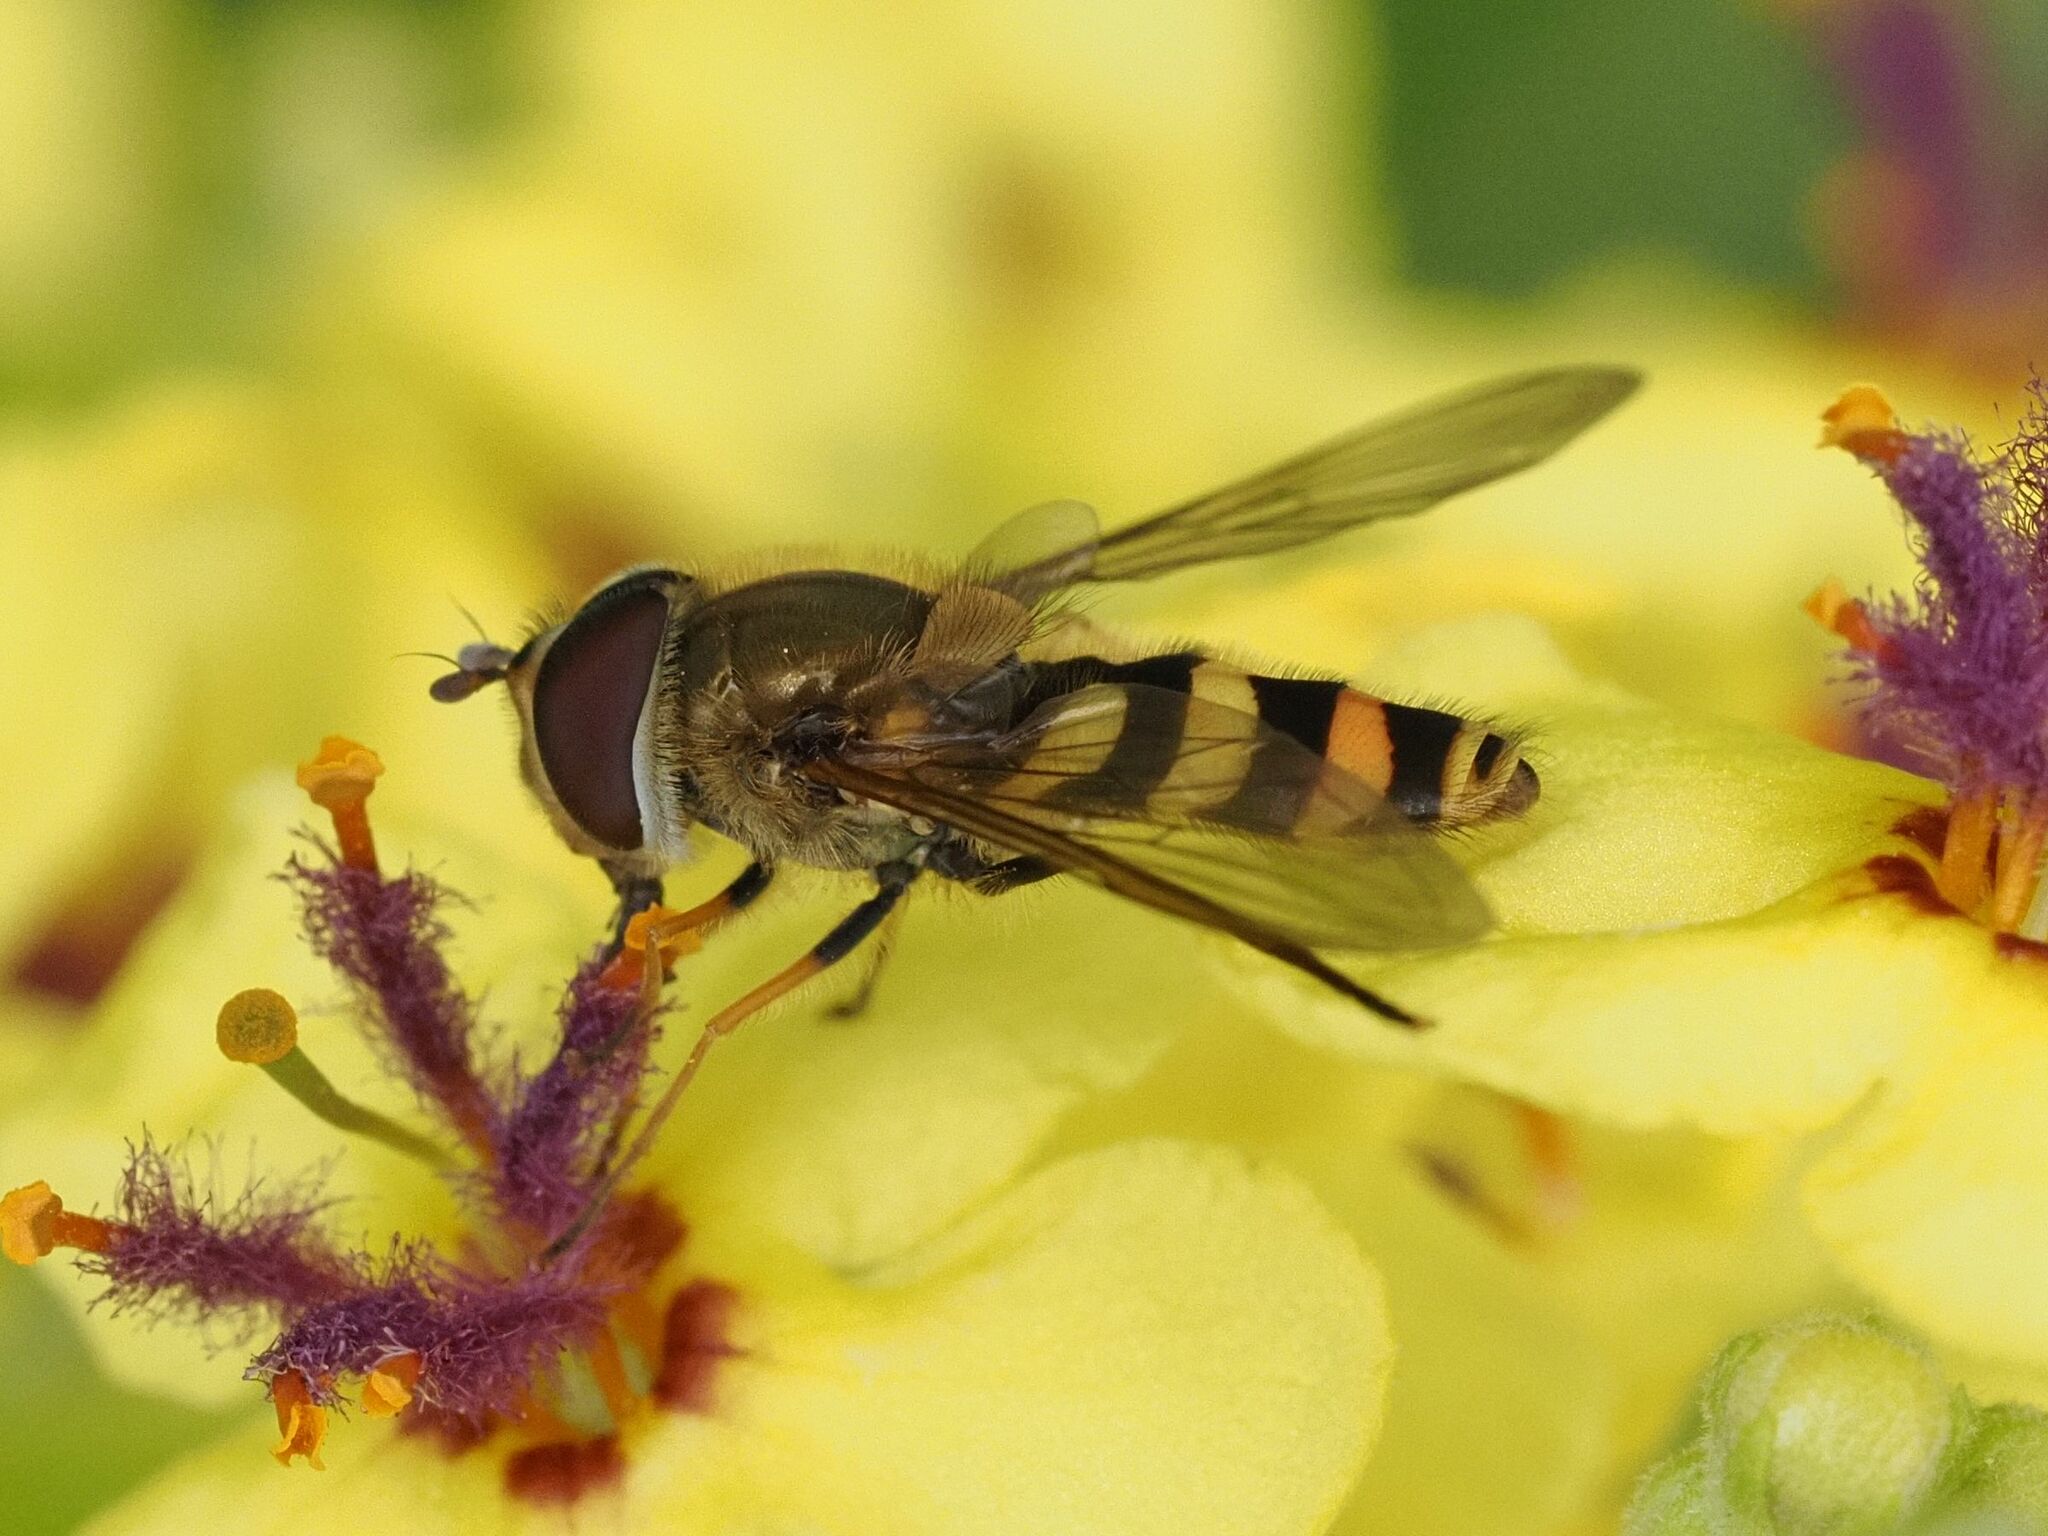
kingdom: Animalia
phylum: Arthropoda
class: Insecta
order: Diptera
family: Syrphidae
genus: Syrphus
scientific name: Syrphus
